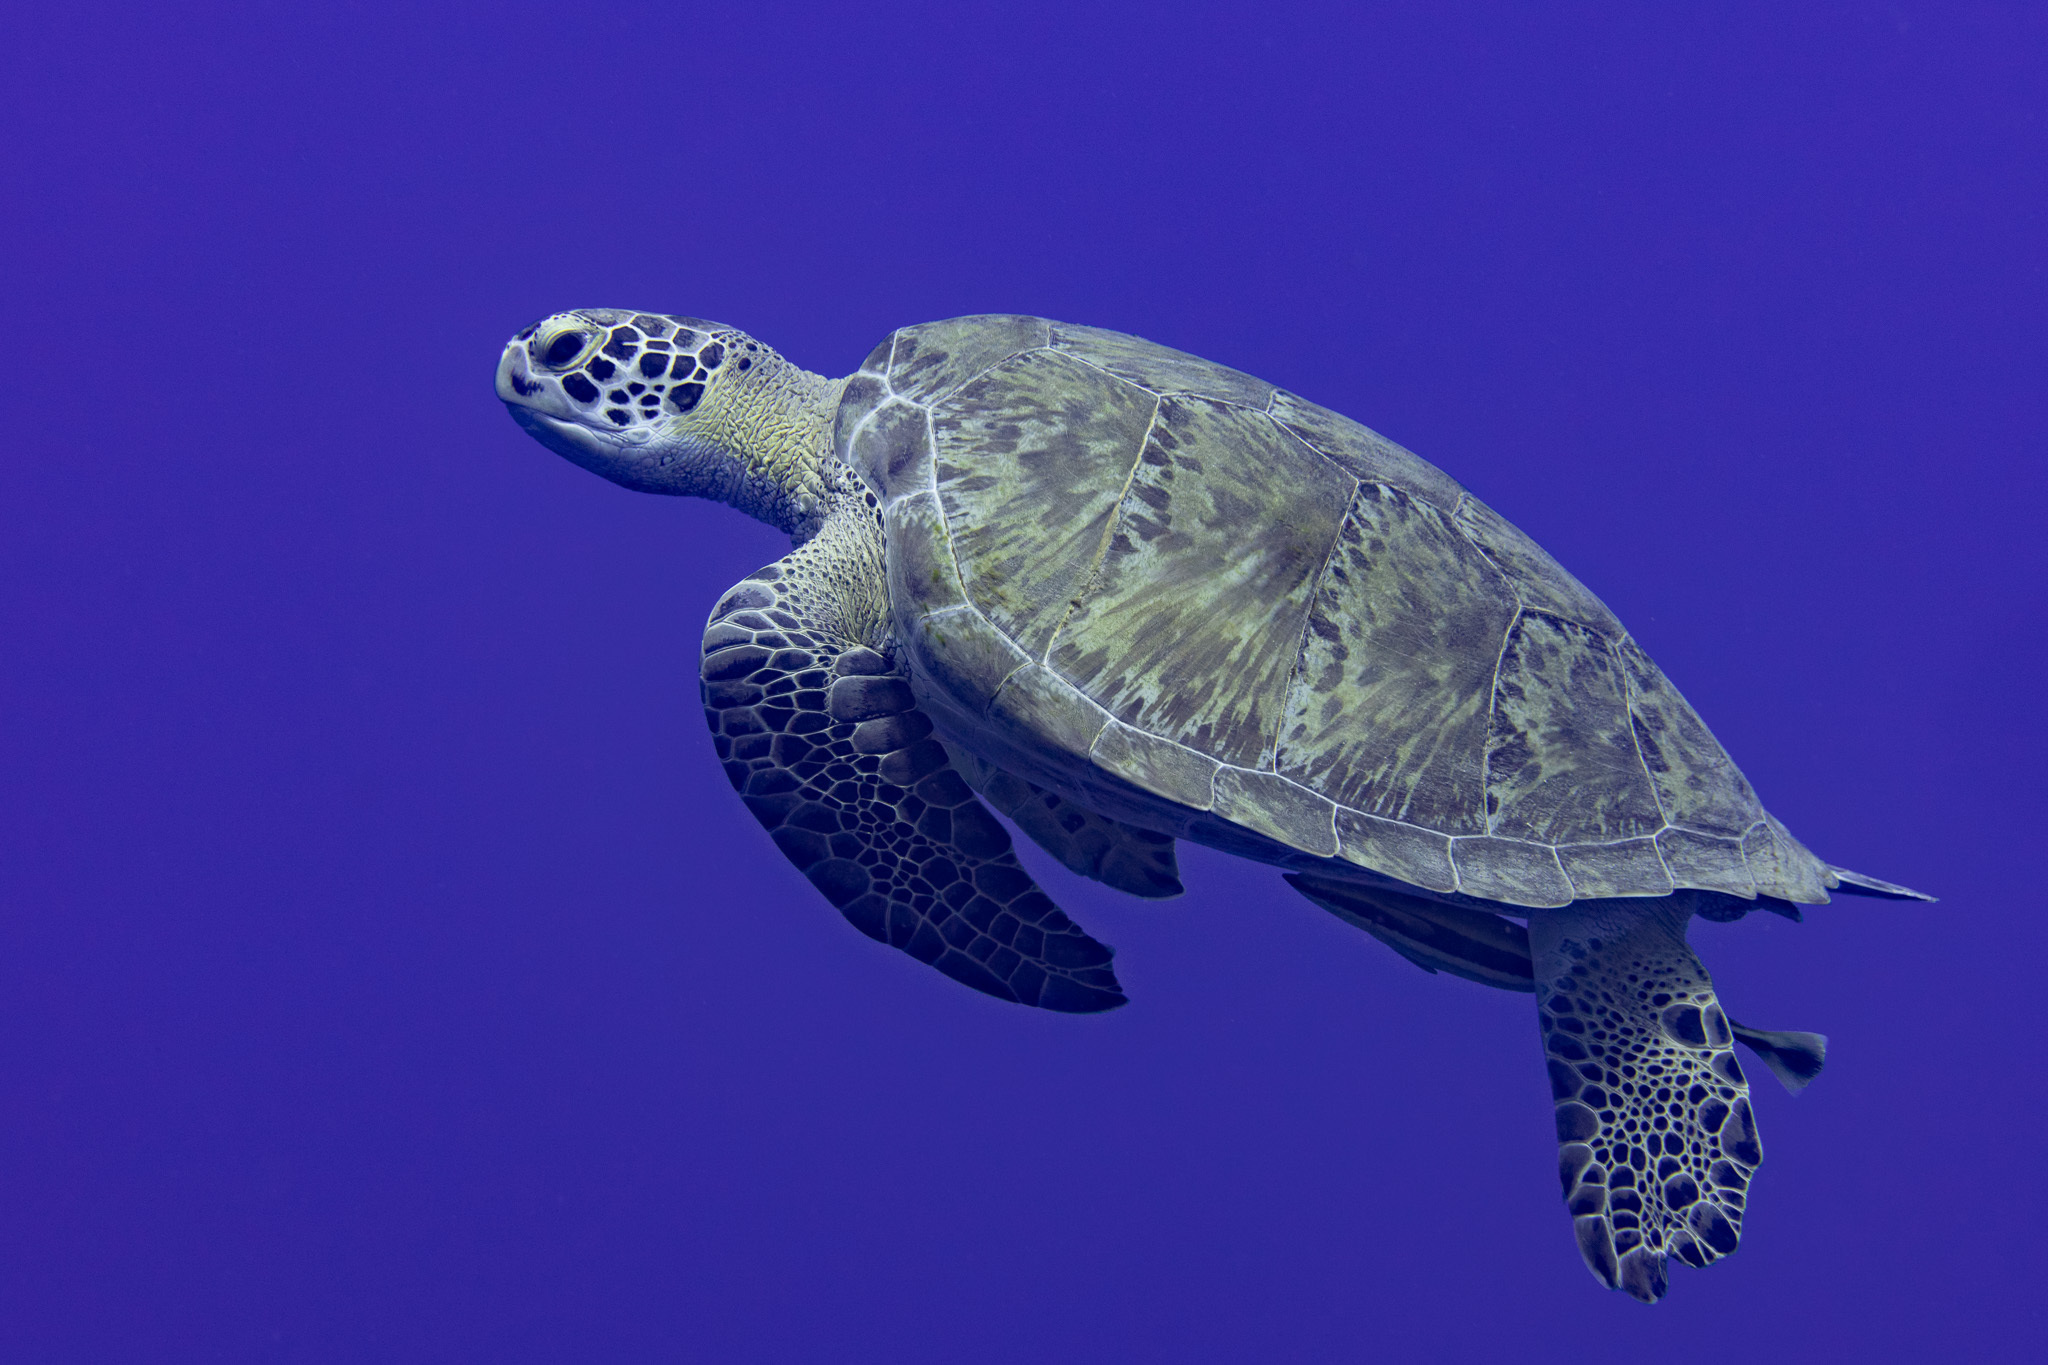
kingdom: Animalia
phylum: Chordata
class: Testudines
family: Cheloniidae
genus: Chelonia
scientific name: Chelonia mydas
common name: Green turtle
